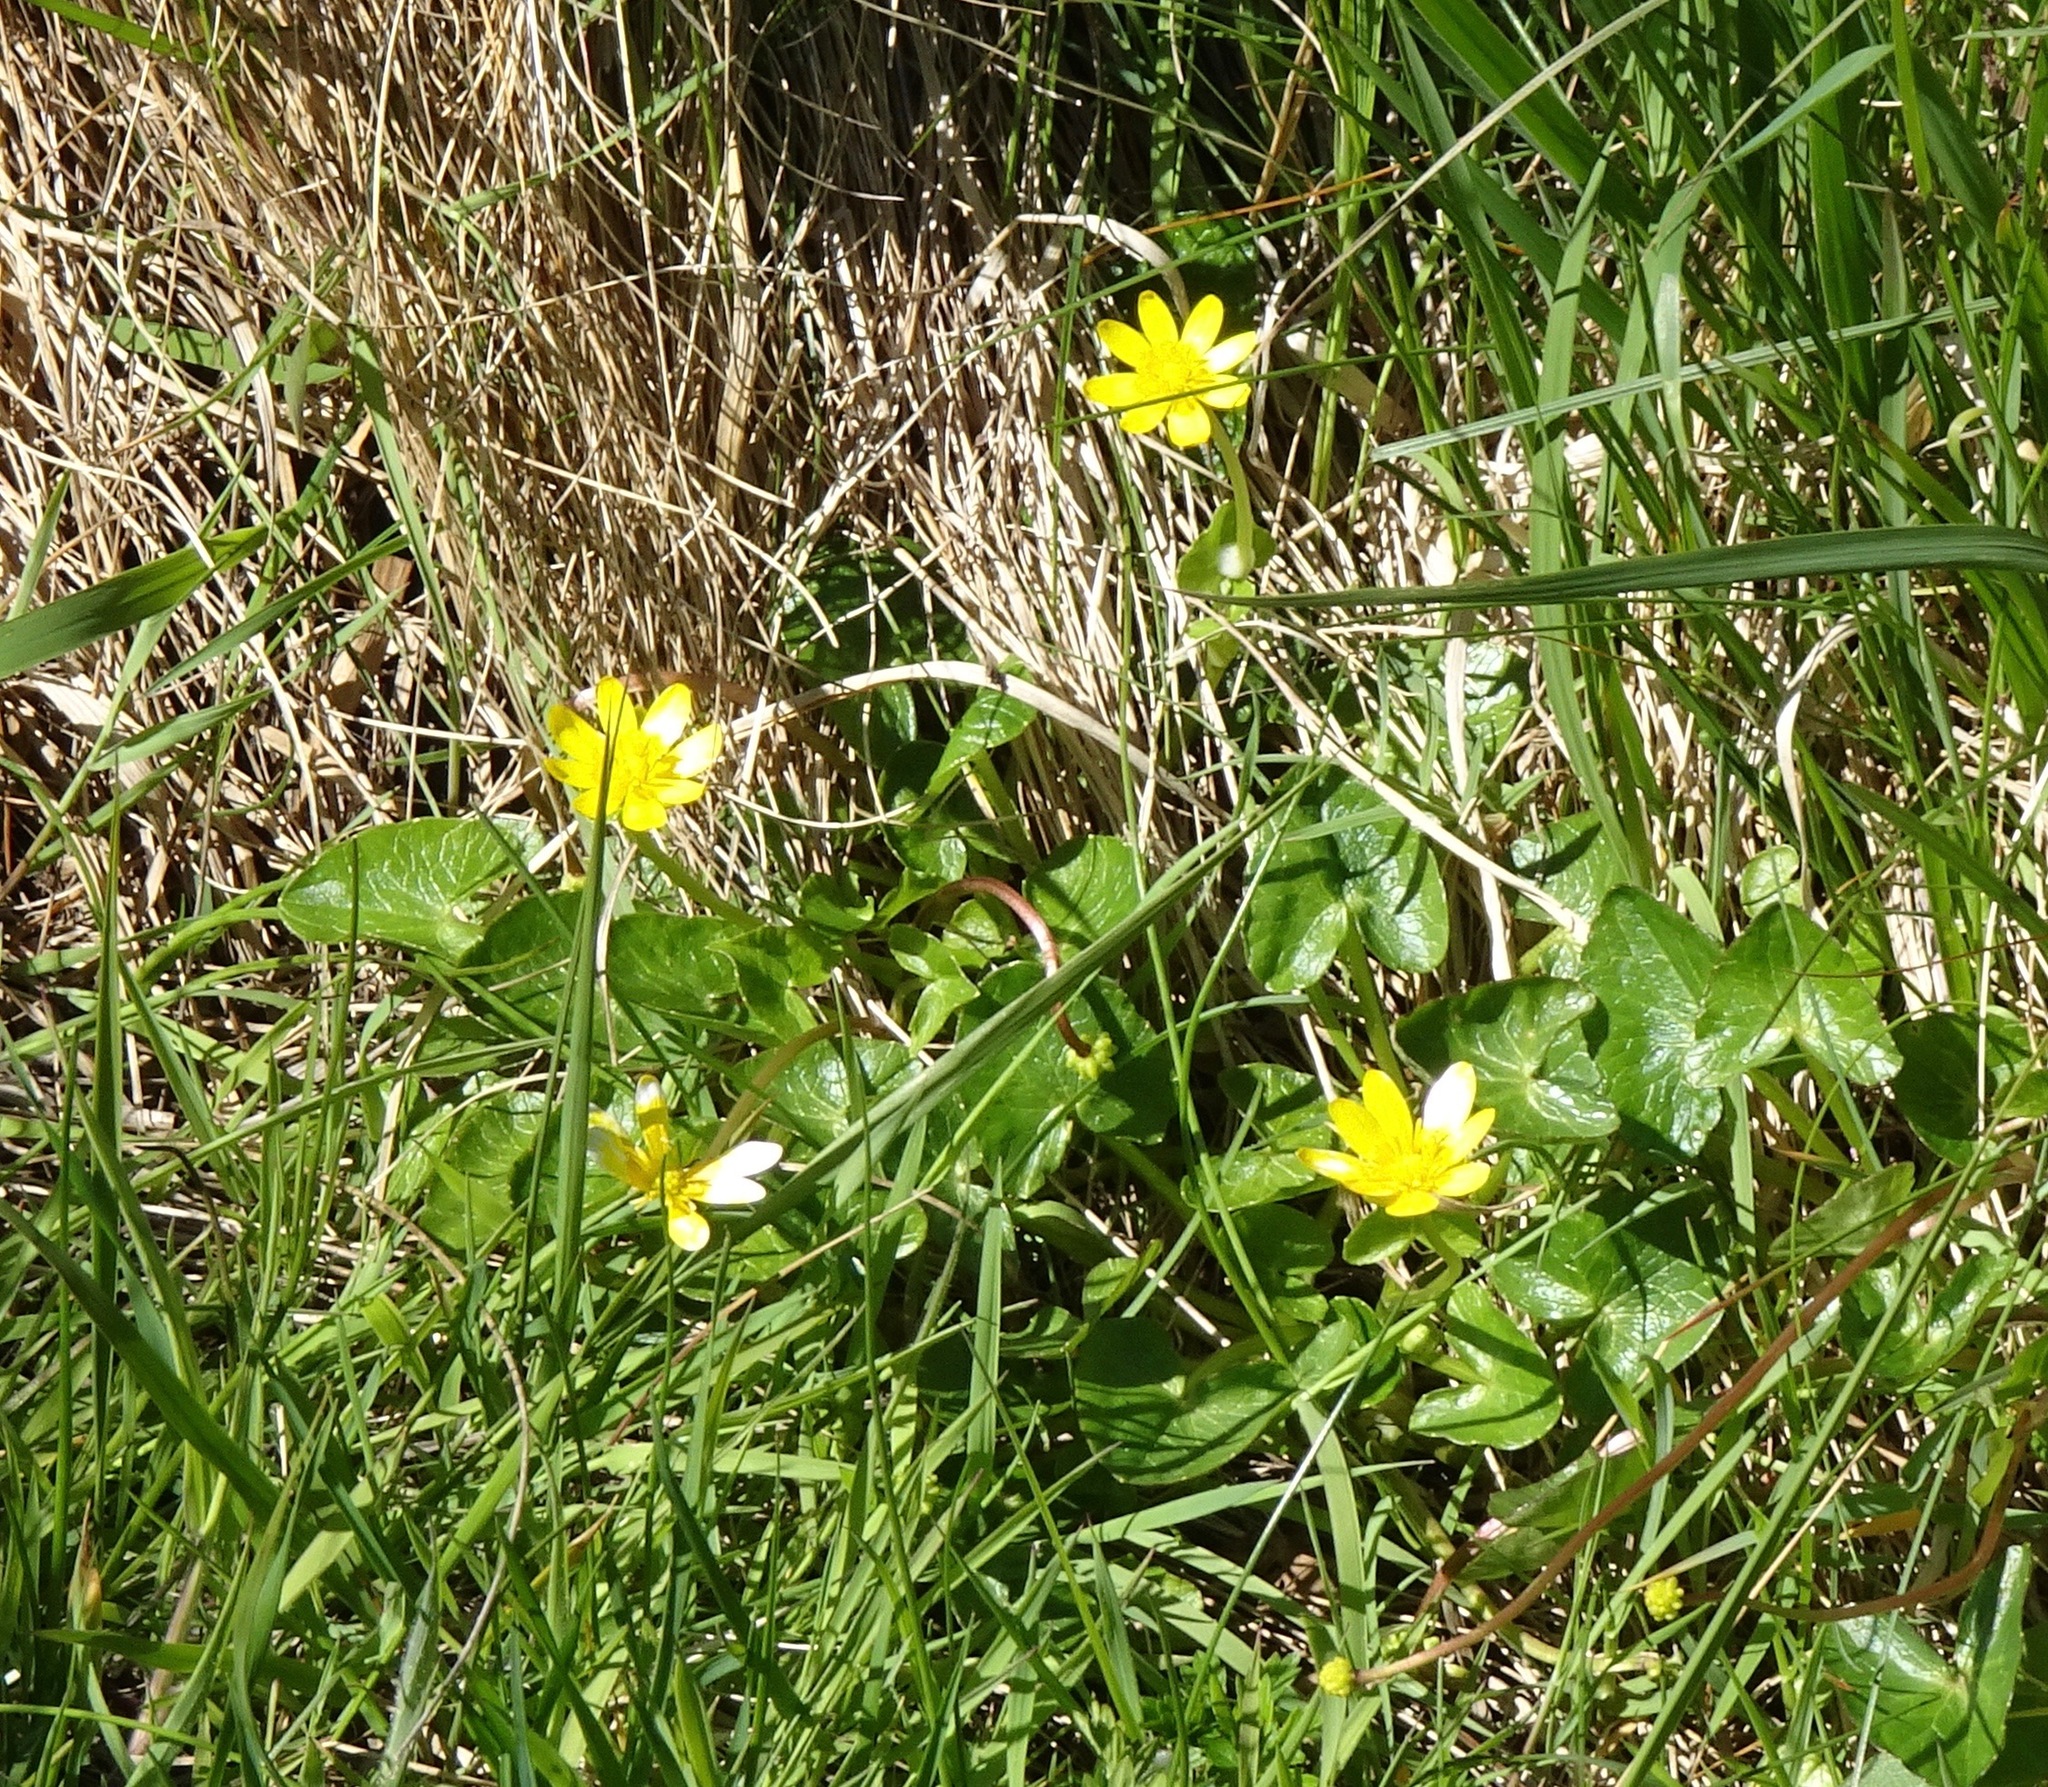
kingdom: Plantae
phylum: Tracheophyta
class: Magnoliopsida
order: Ranunculales
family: Ranunculaceae
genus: Ficaria
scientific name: Ficaria verna
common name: Lesser celandine
